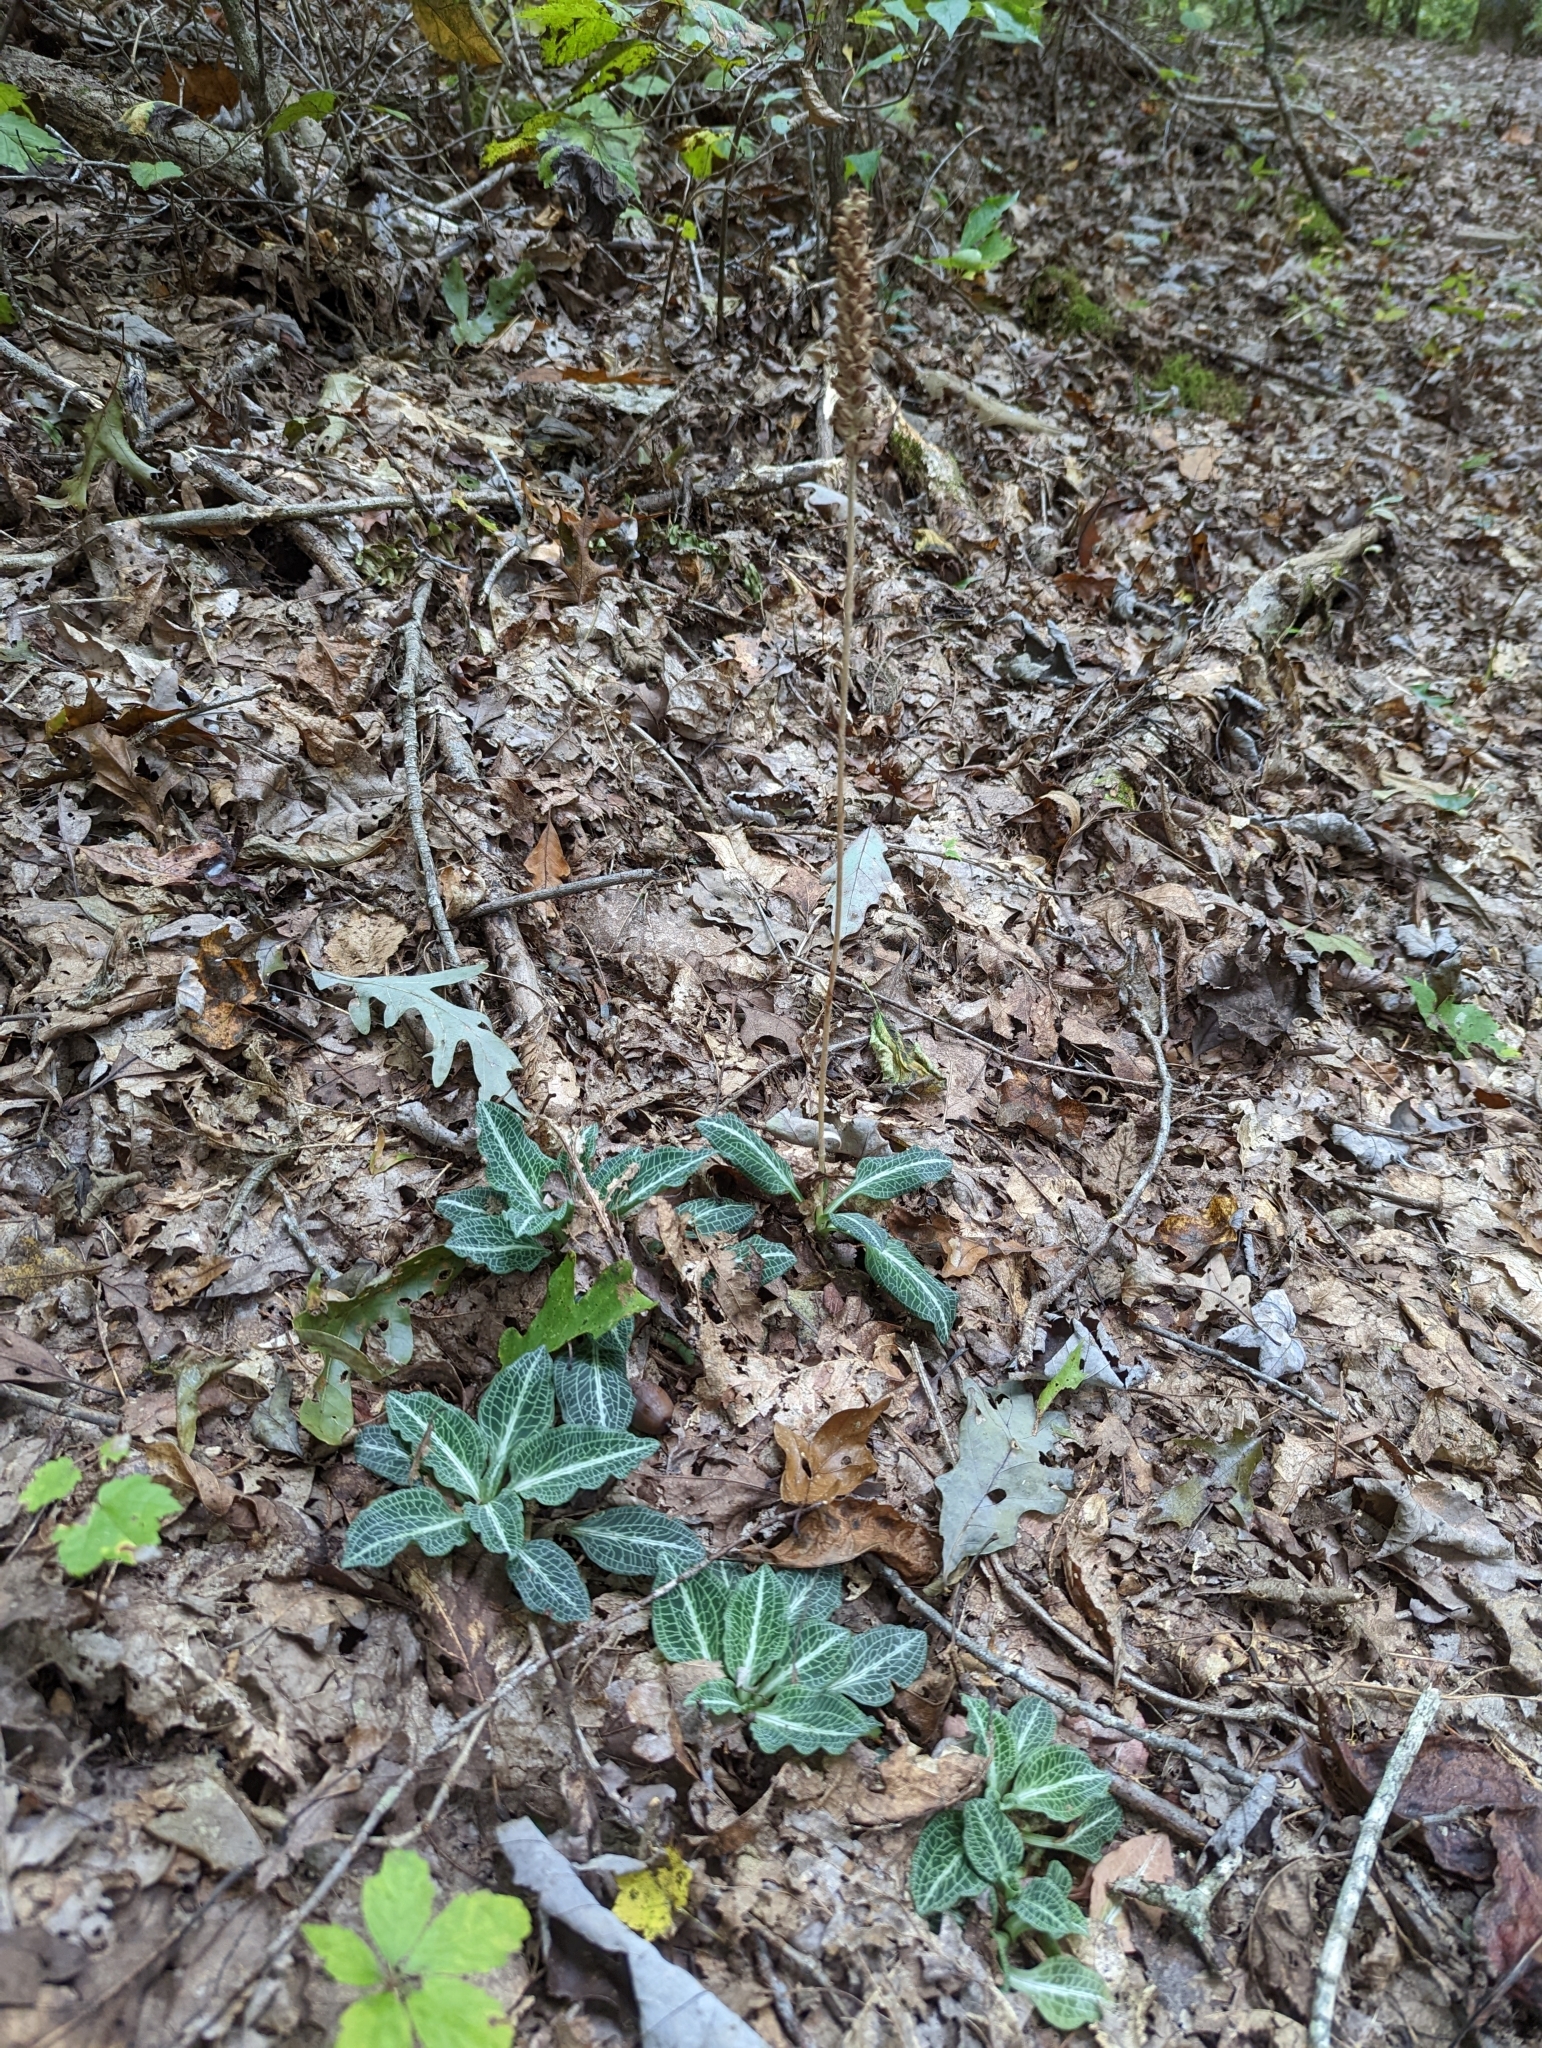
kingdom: Plantae
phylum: Tracheophyta
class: Liliopsida
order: Asparagales
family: Orchidaceae
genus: Goodyera
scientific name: Goodyera pubescens
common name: Downy rattlesnake-plantain
